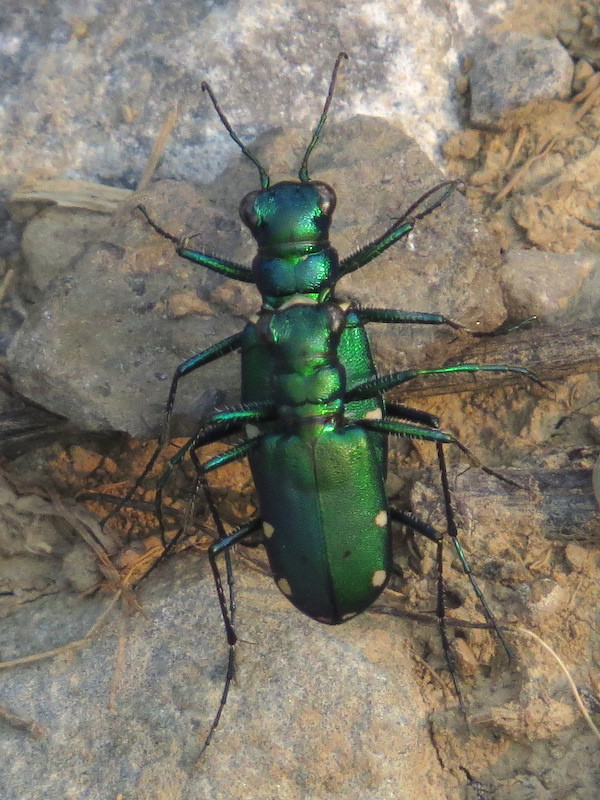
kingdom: Animalia
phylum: Arthropoda
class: Insecta
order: Coleoptera
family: Carabidae
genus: Cicindela
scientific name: Cicindela sexguttata
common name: Six-spotted tiger beetle
